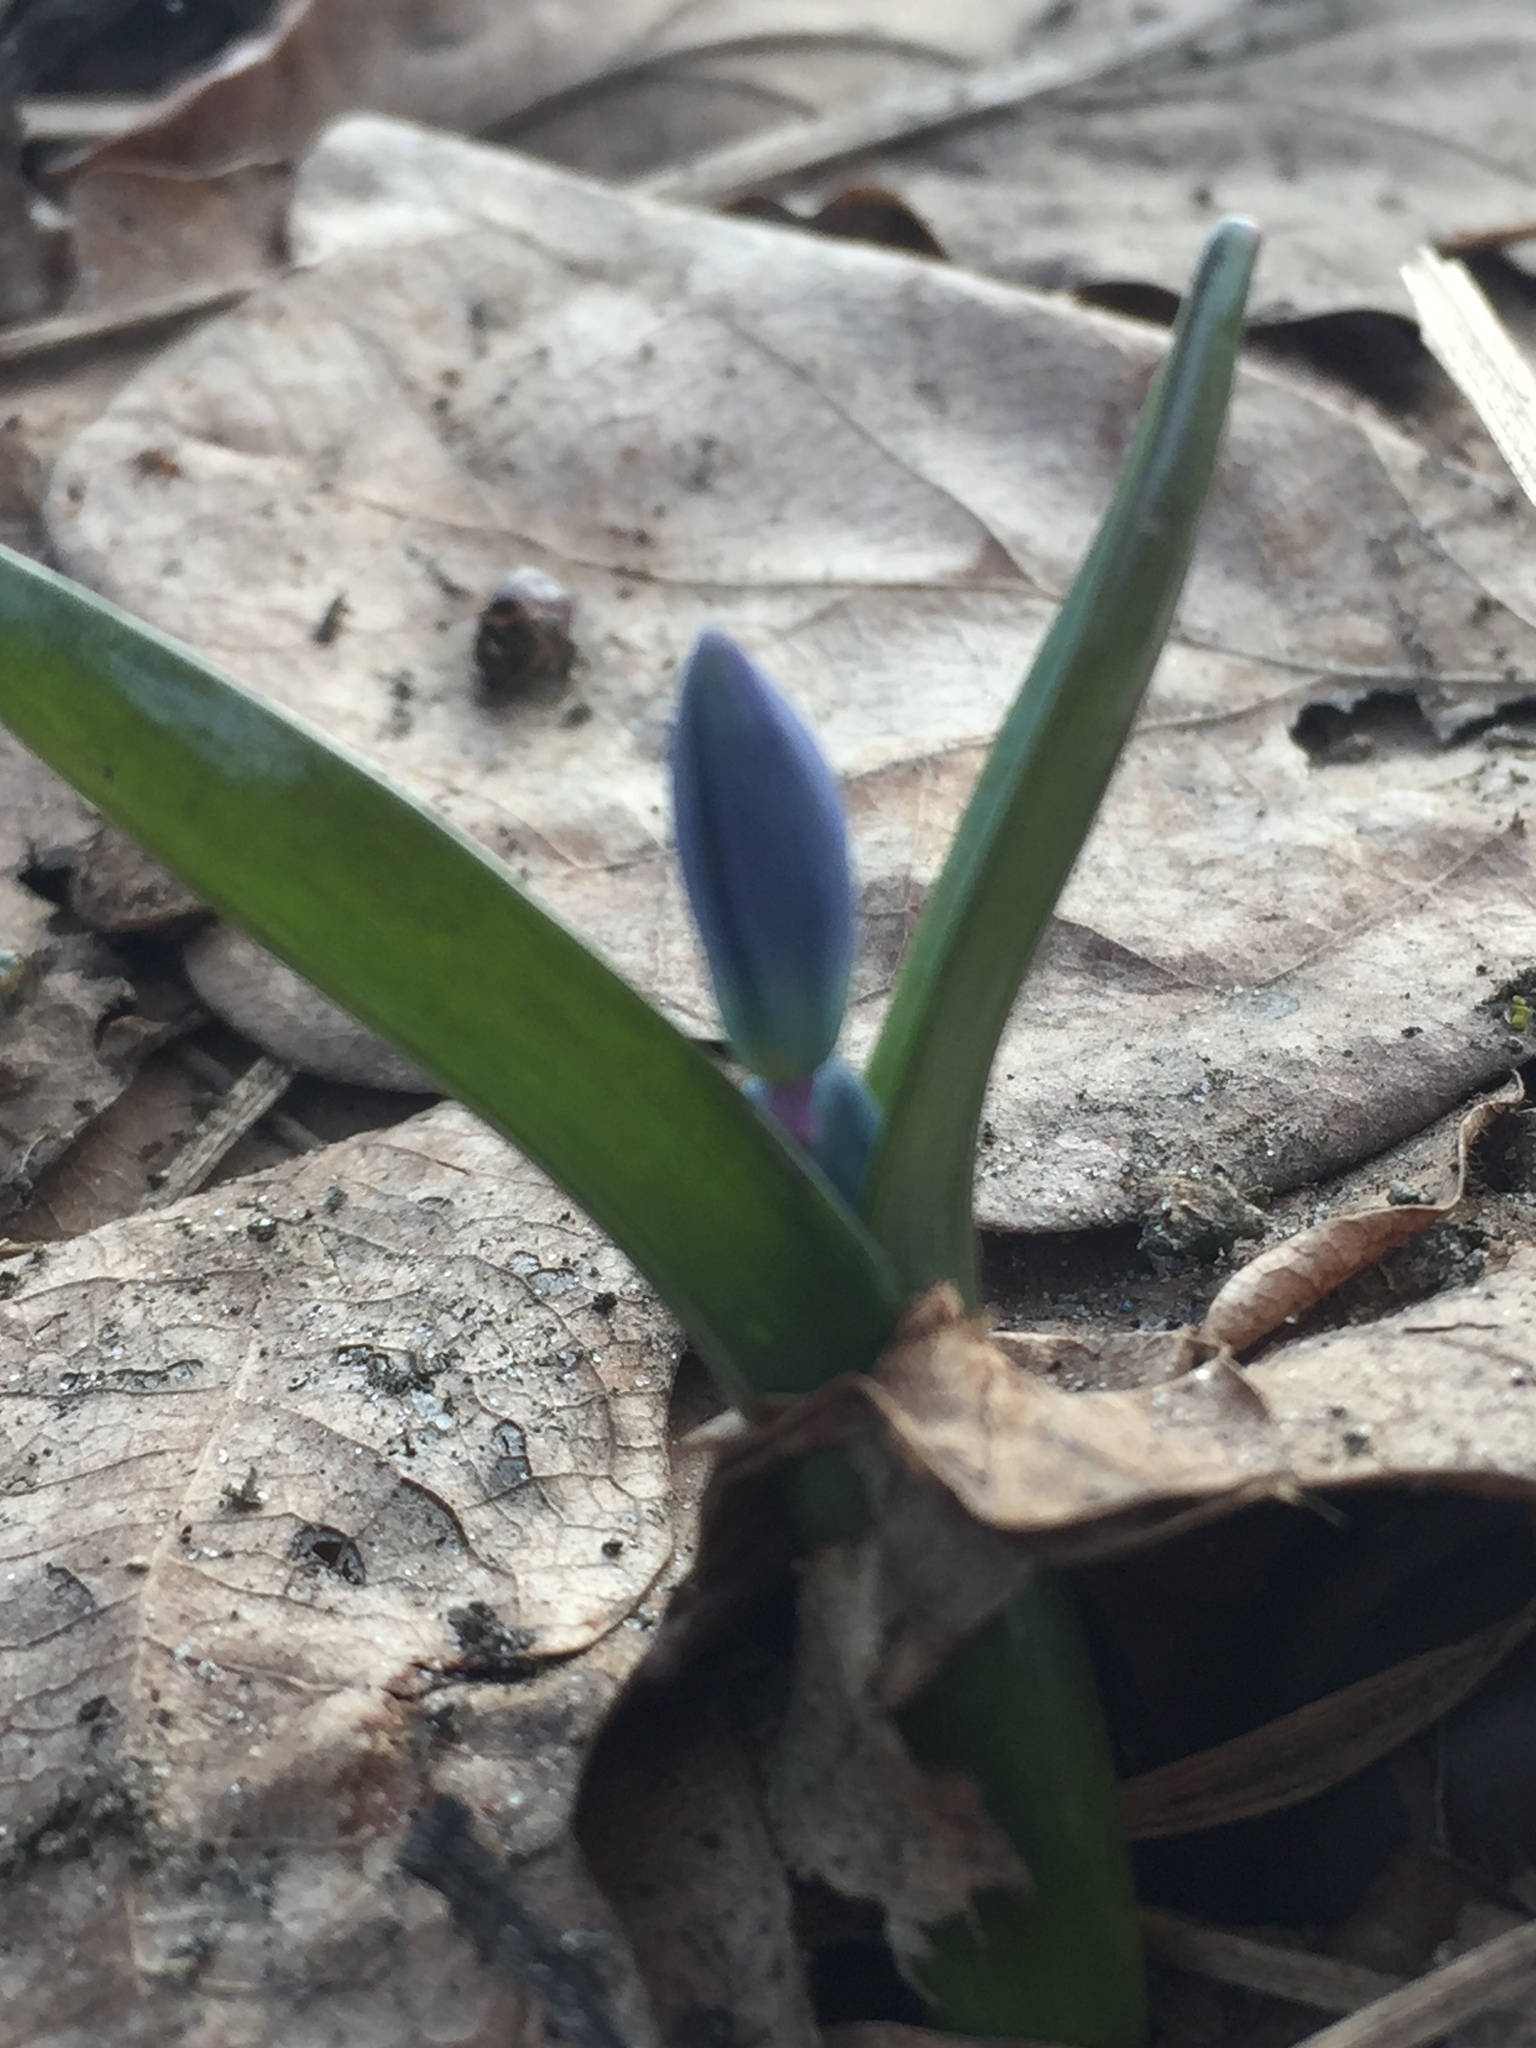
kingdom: Plantae
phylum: Tracheophyta
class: Liliopsida
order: Asparagales
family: Asparagaceae
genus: Scilla
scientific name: Scilla siberica
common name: Siberian squill
